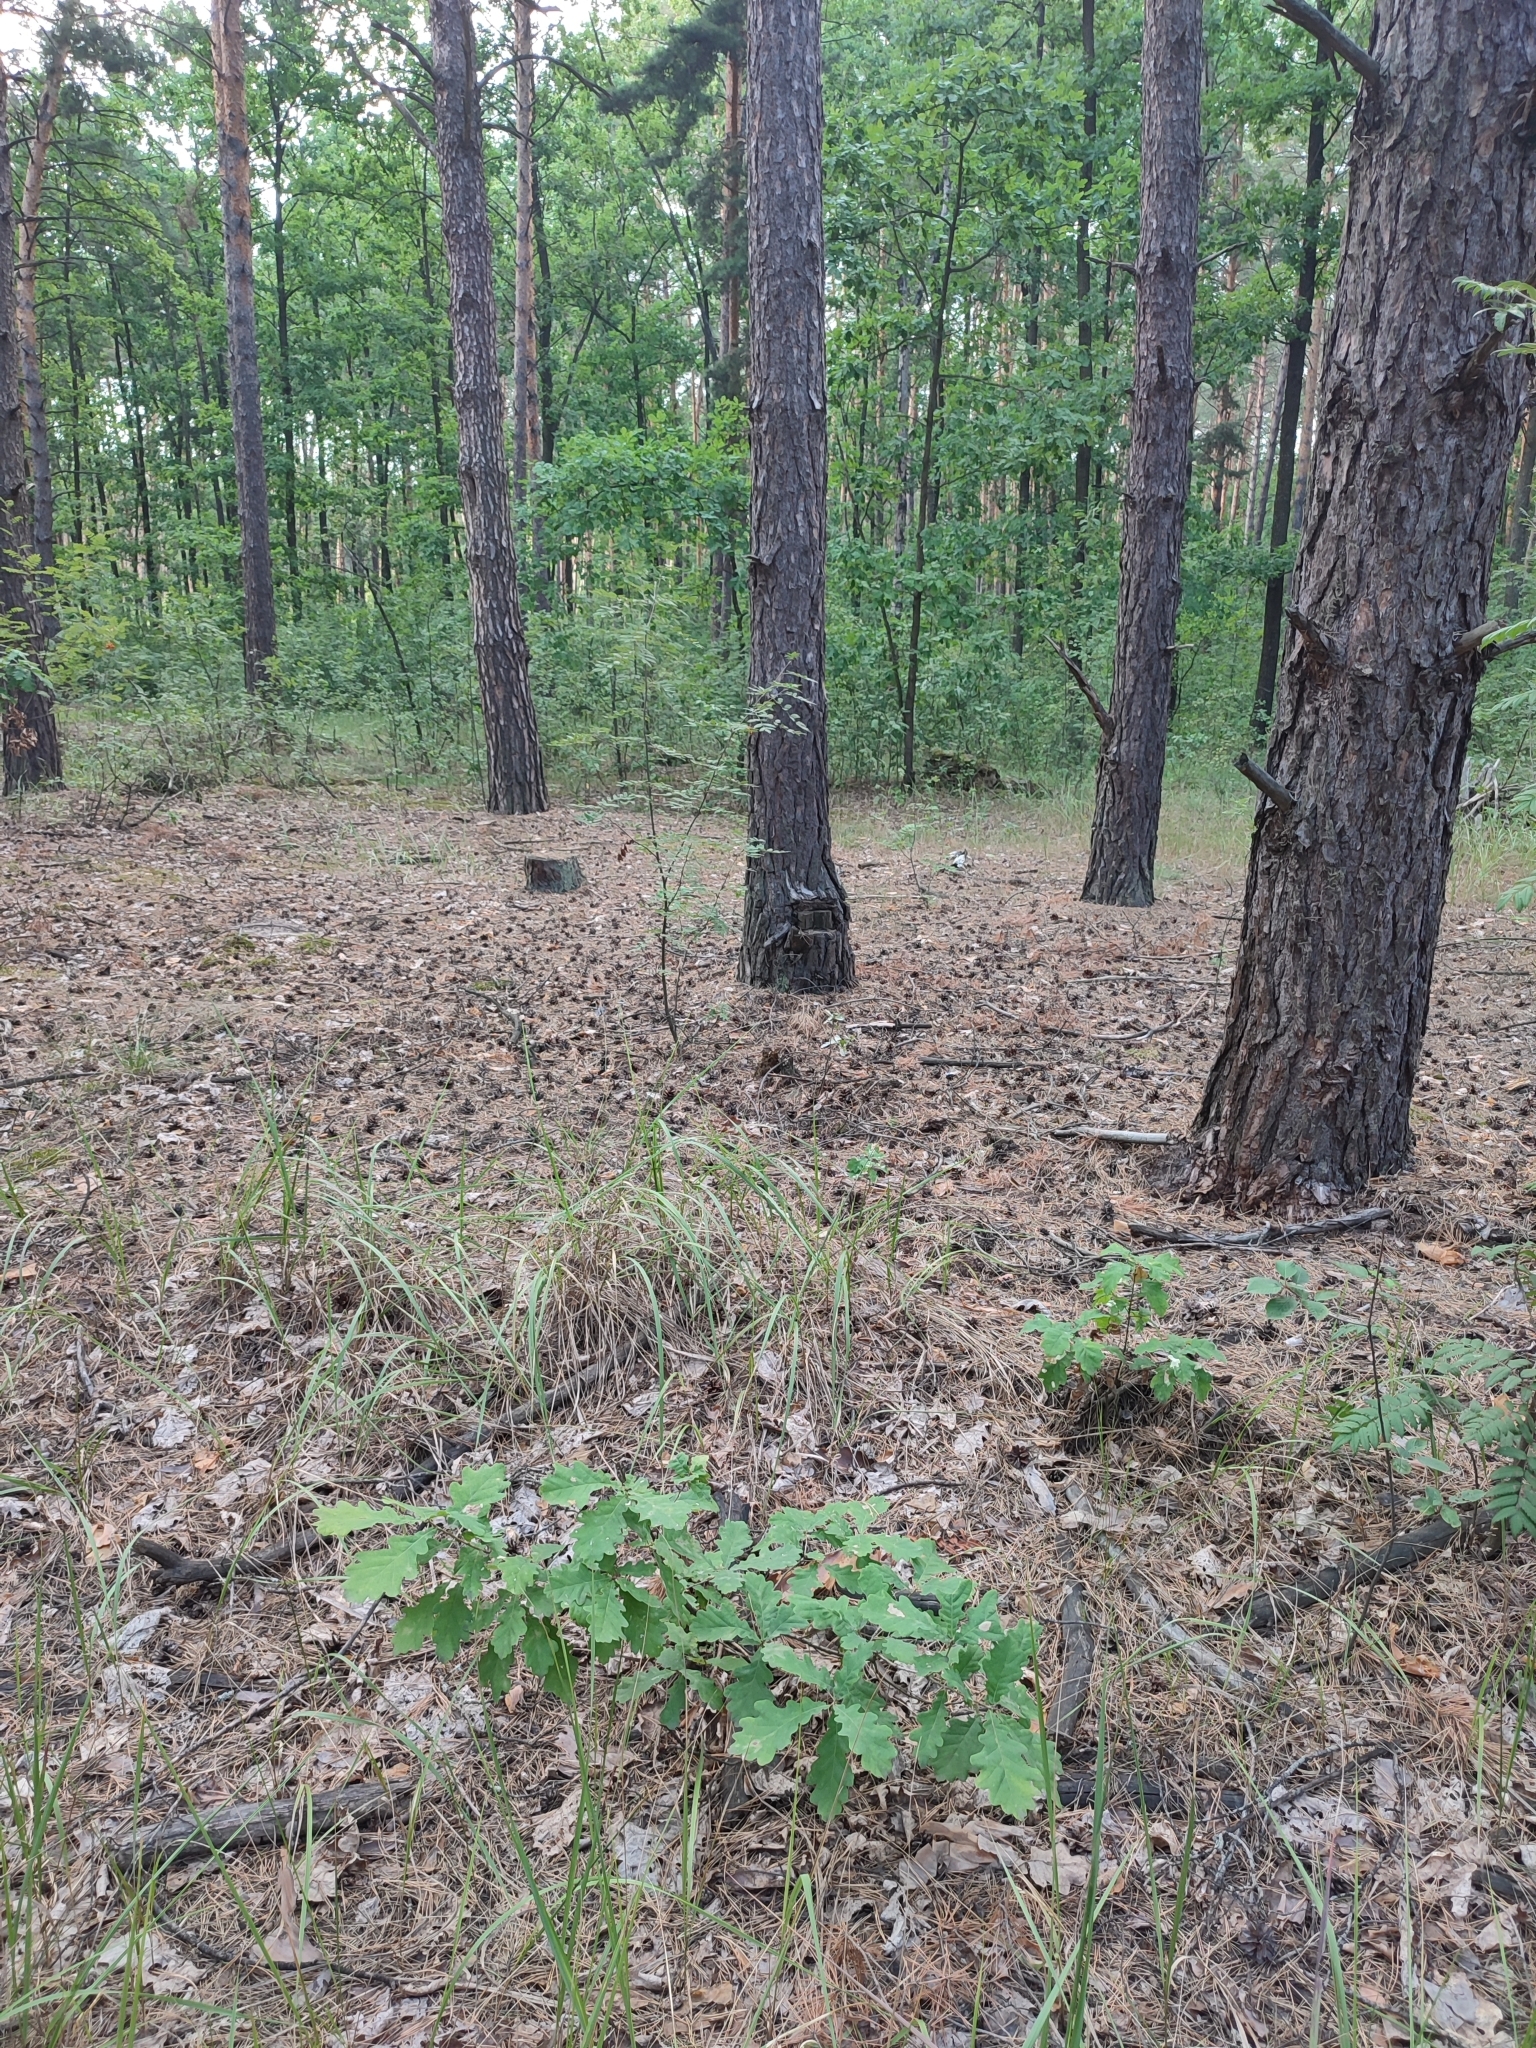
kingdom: Plantae
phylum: Tracheophyta
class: Magnoliopsida
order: Fagales
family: Fagaceae
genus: Quercus
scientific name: Quercus robur
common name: Pedunculate oak
